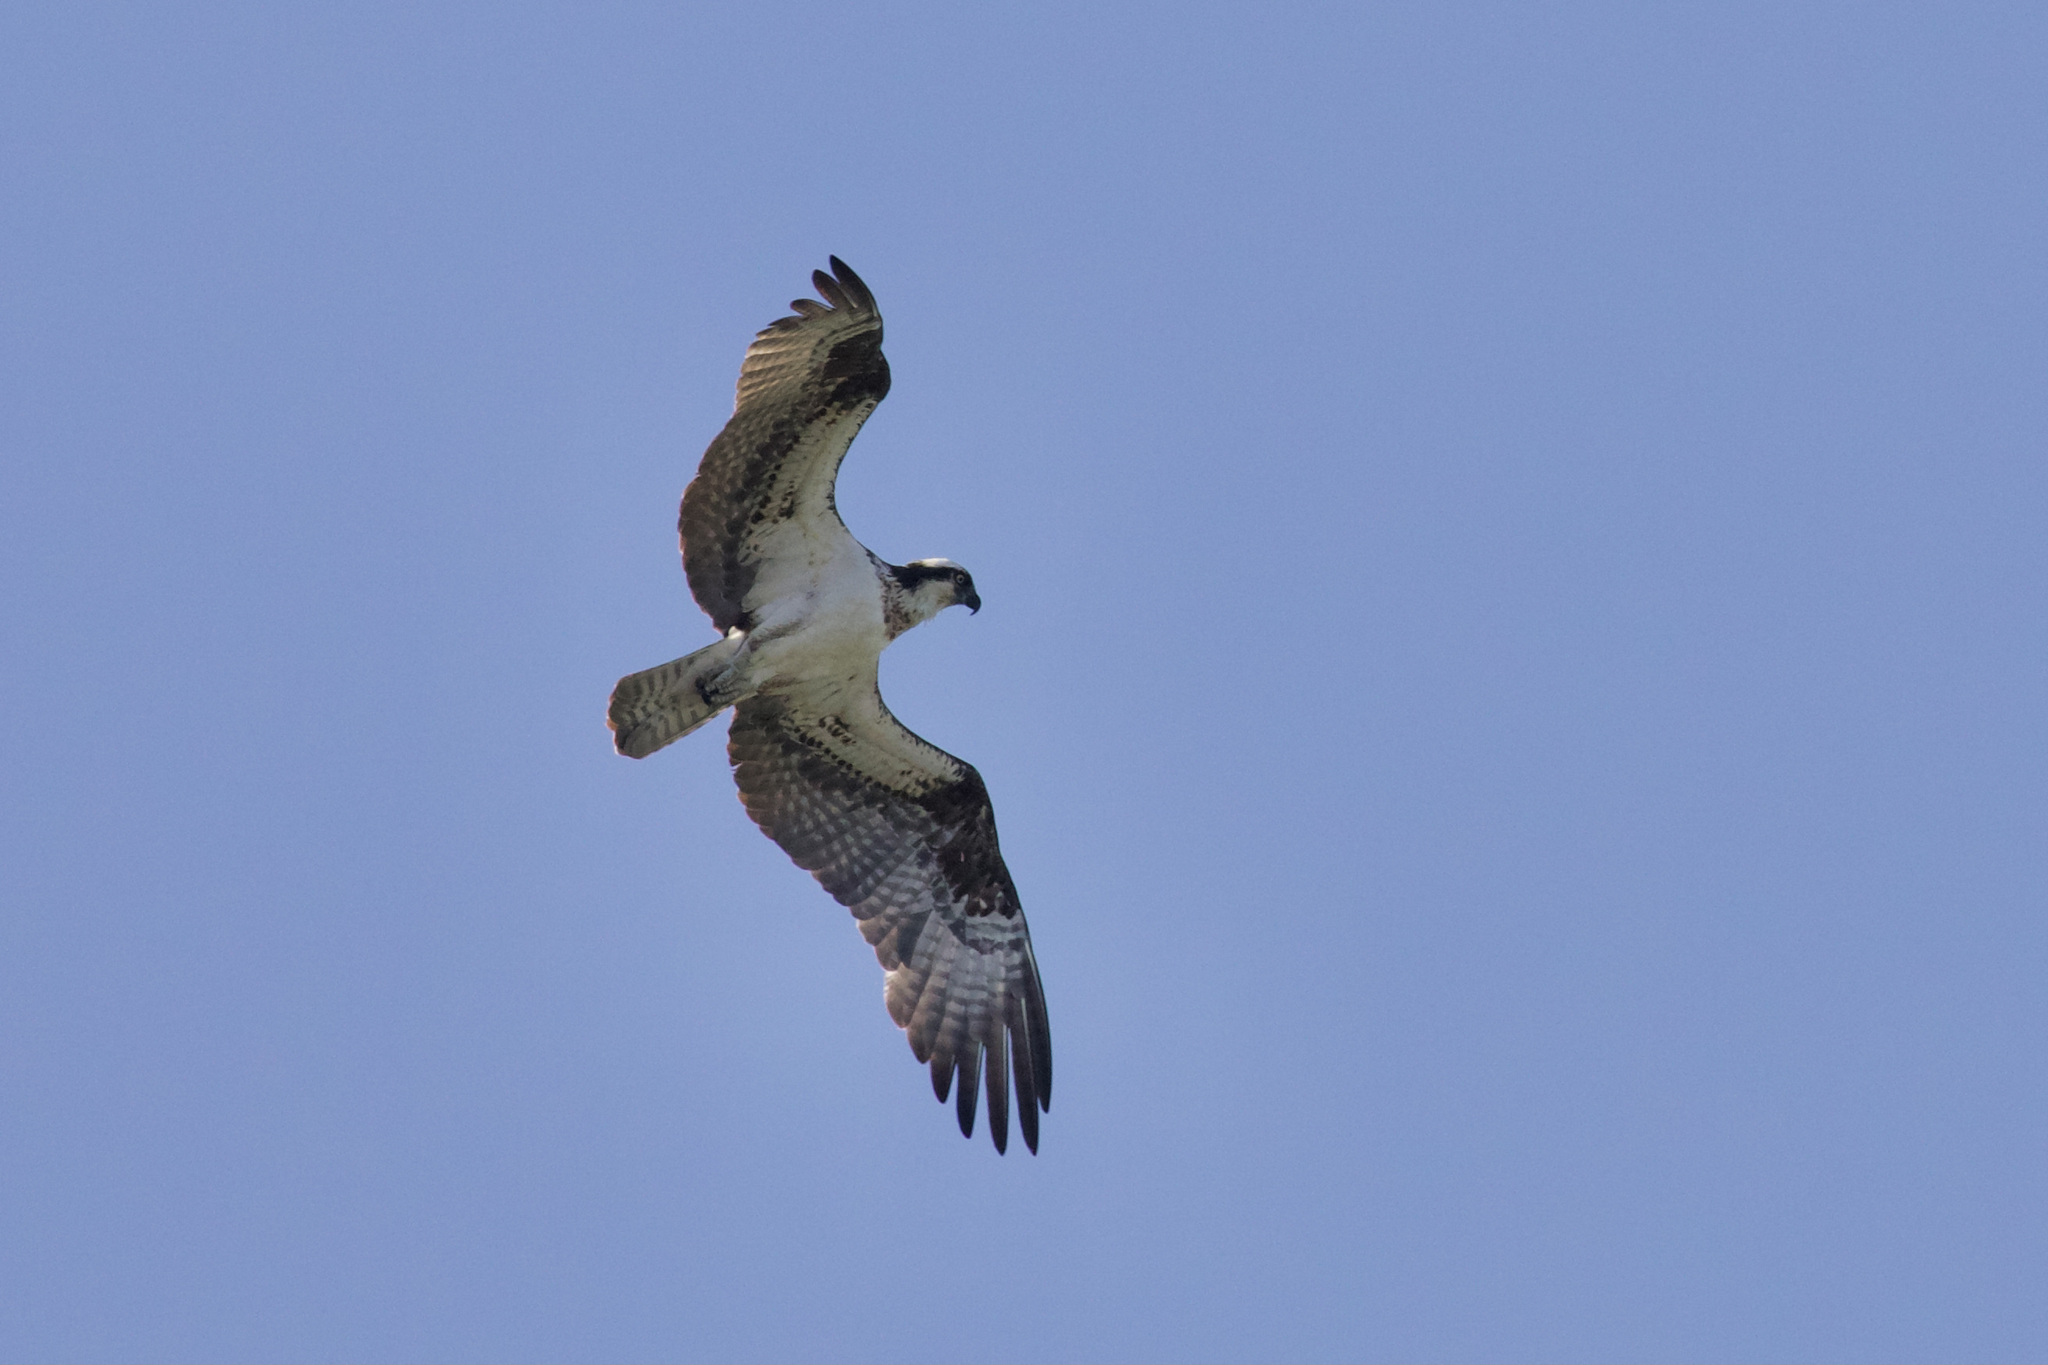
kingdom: Animalia
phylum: Chordata
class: Aves
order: Accipitriformes
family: Pandionidae
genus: Pandion
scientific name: Pandion haliaetus
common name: Osprey
